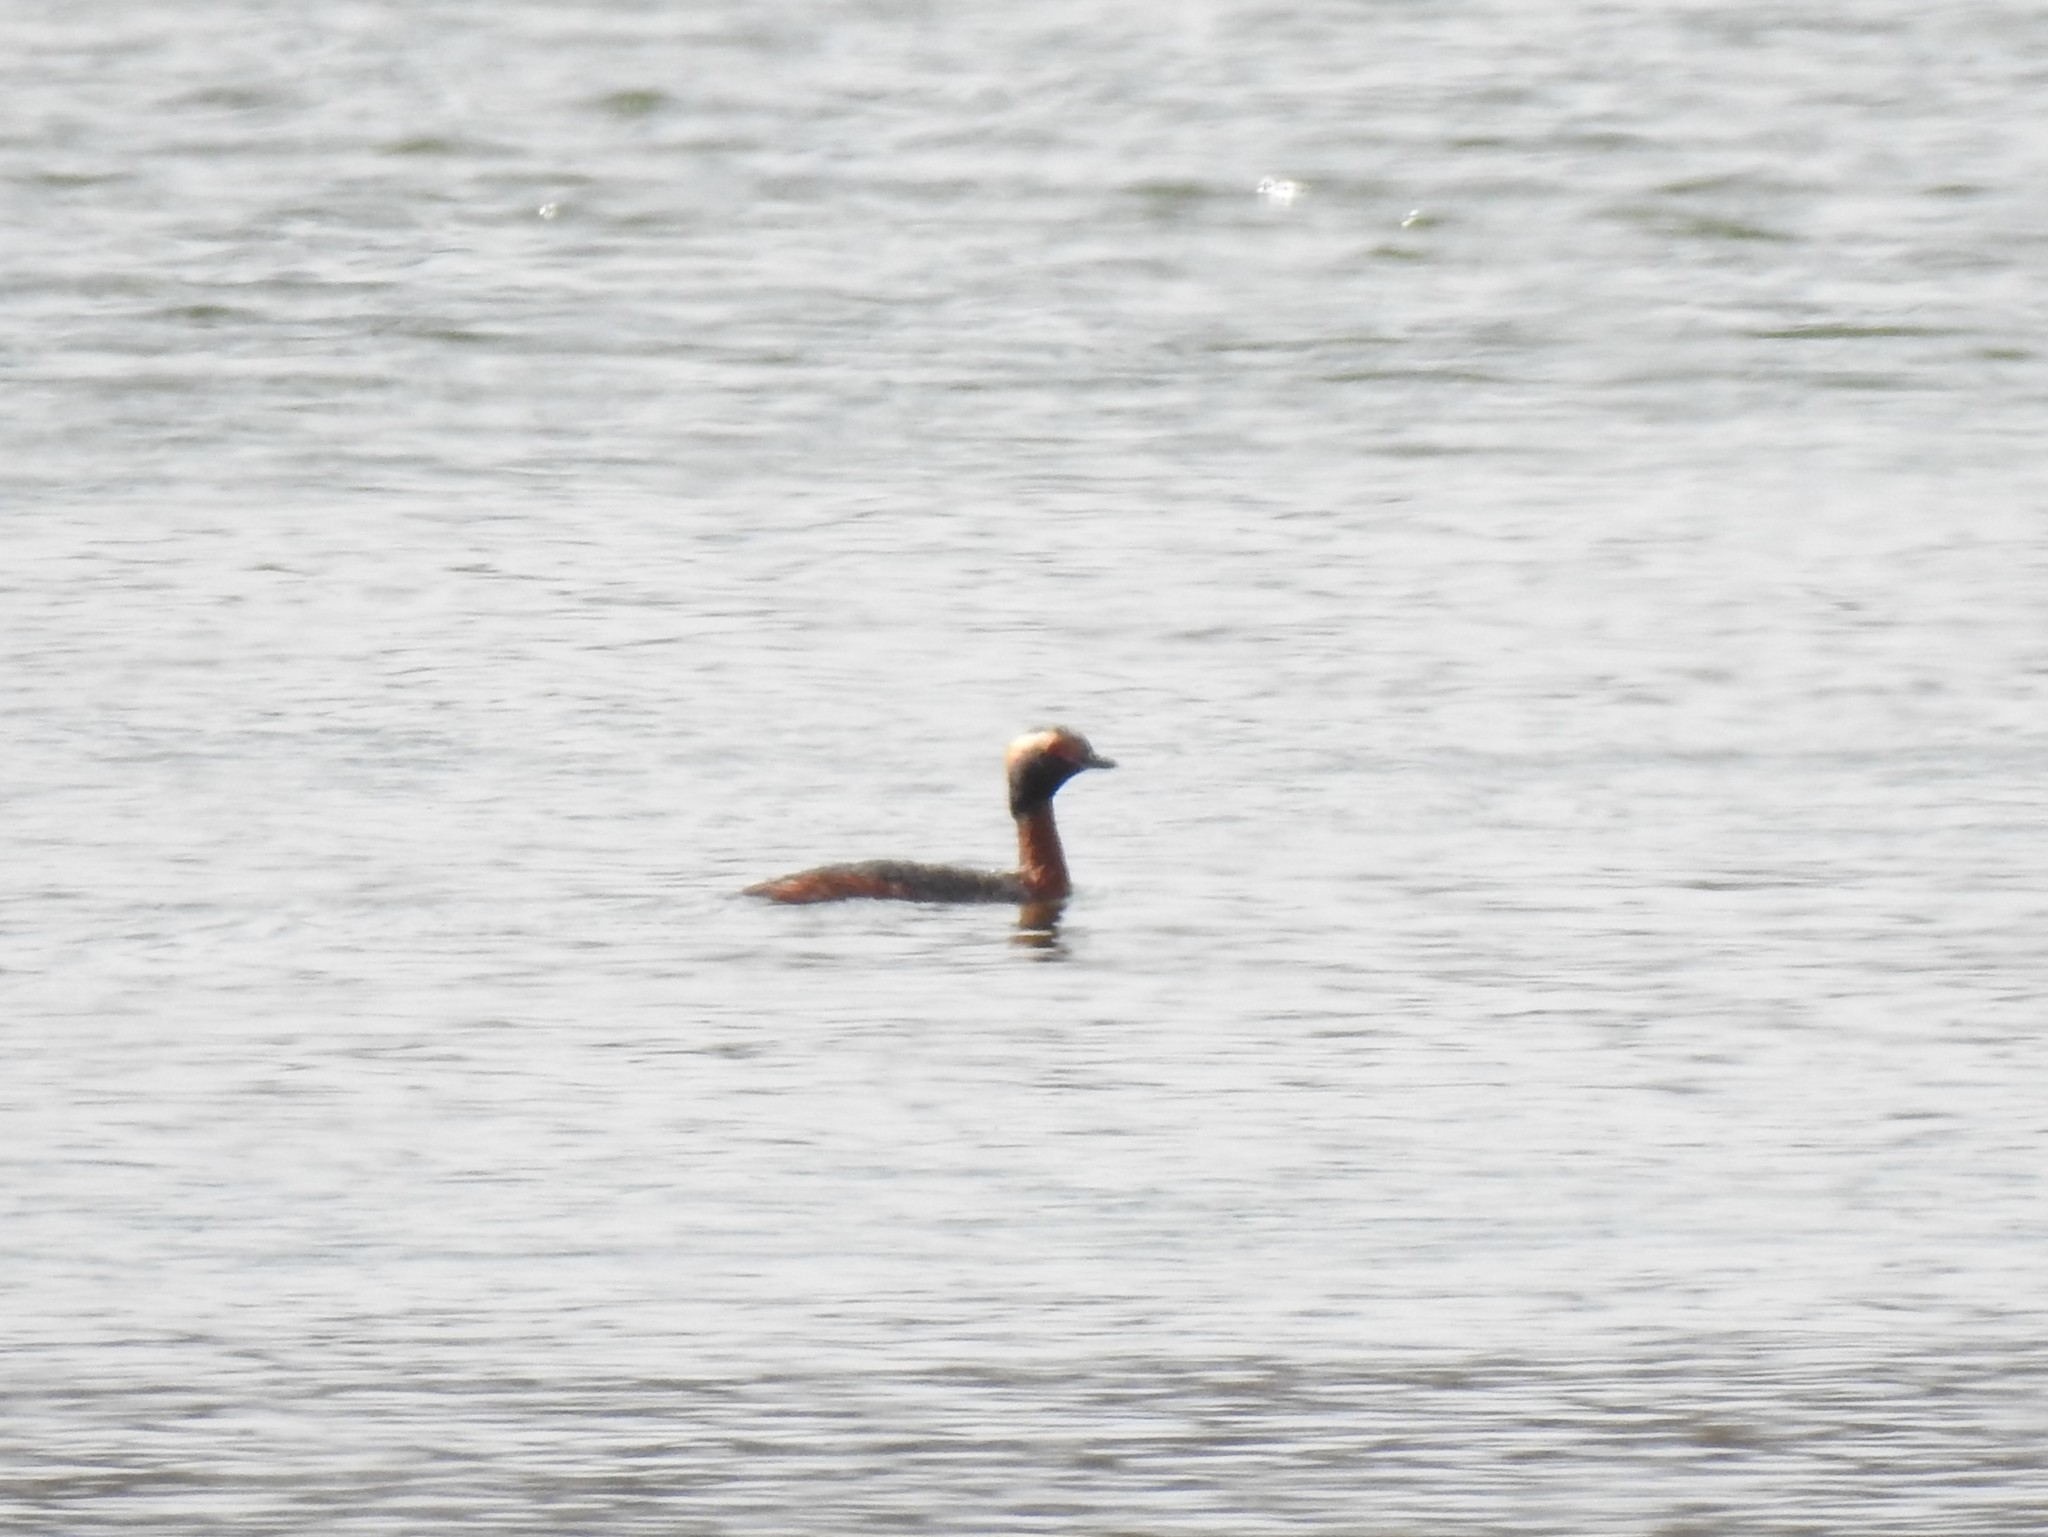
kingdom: Animalia
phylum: Chordata
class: Aves
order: Podicipediformes
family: Podicipedidae
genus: Podiceps
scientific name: Podiceps auritus
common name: Horned grebe
